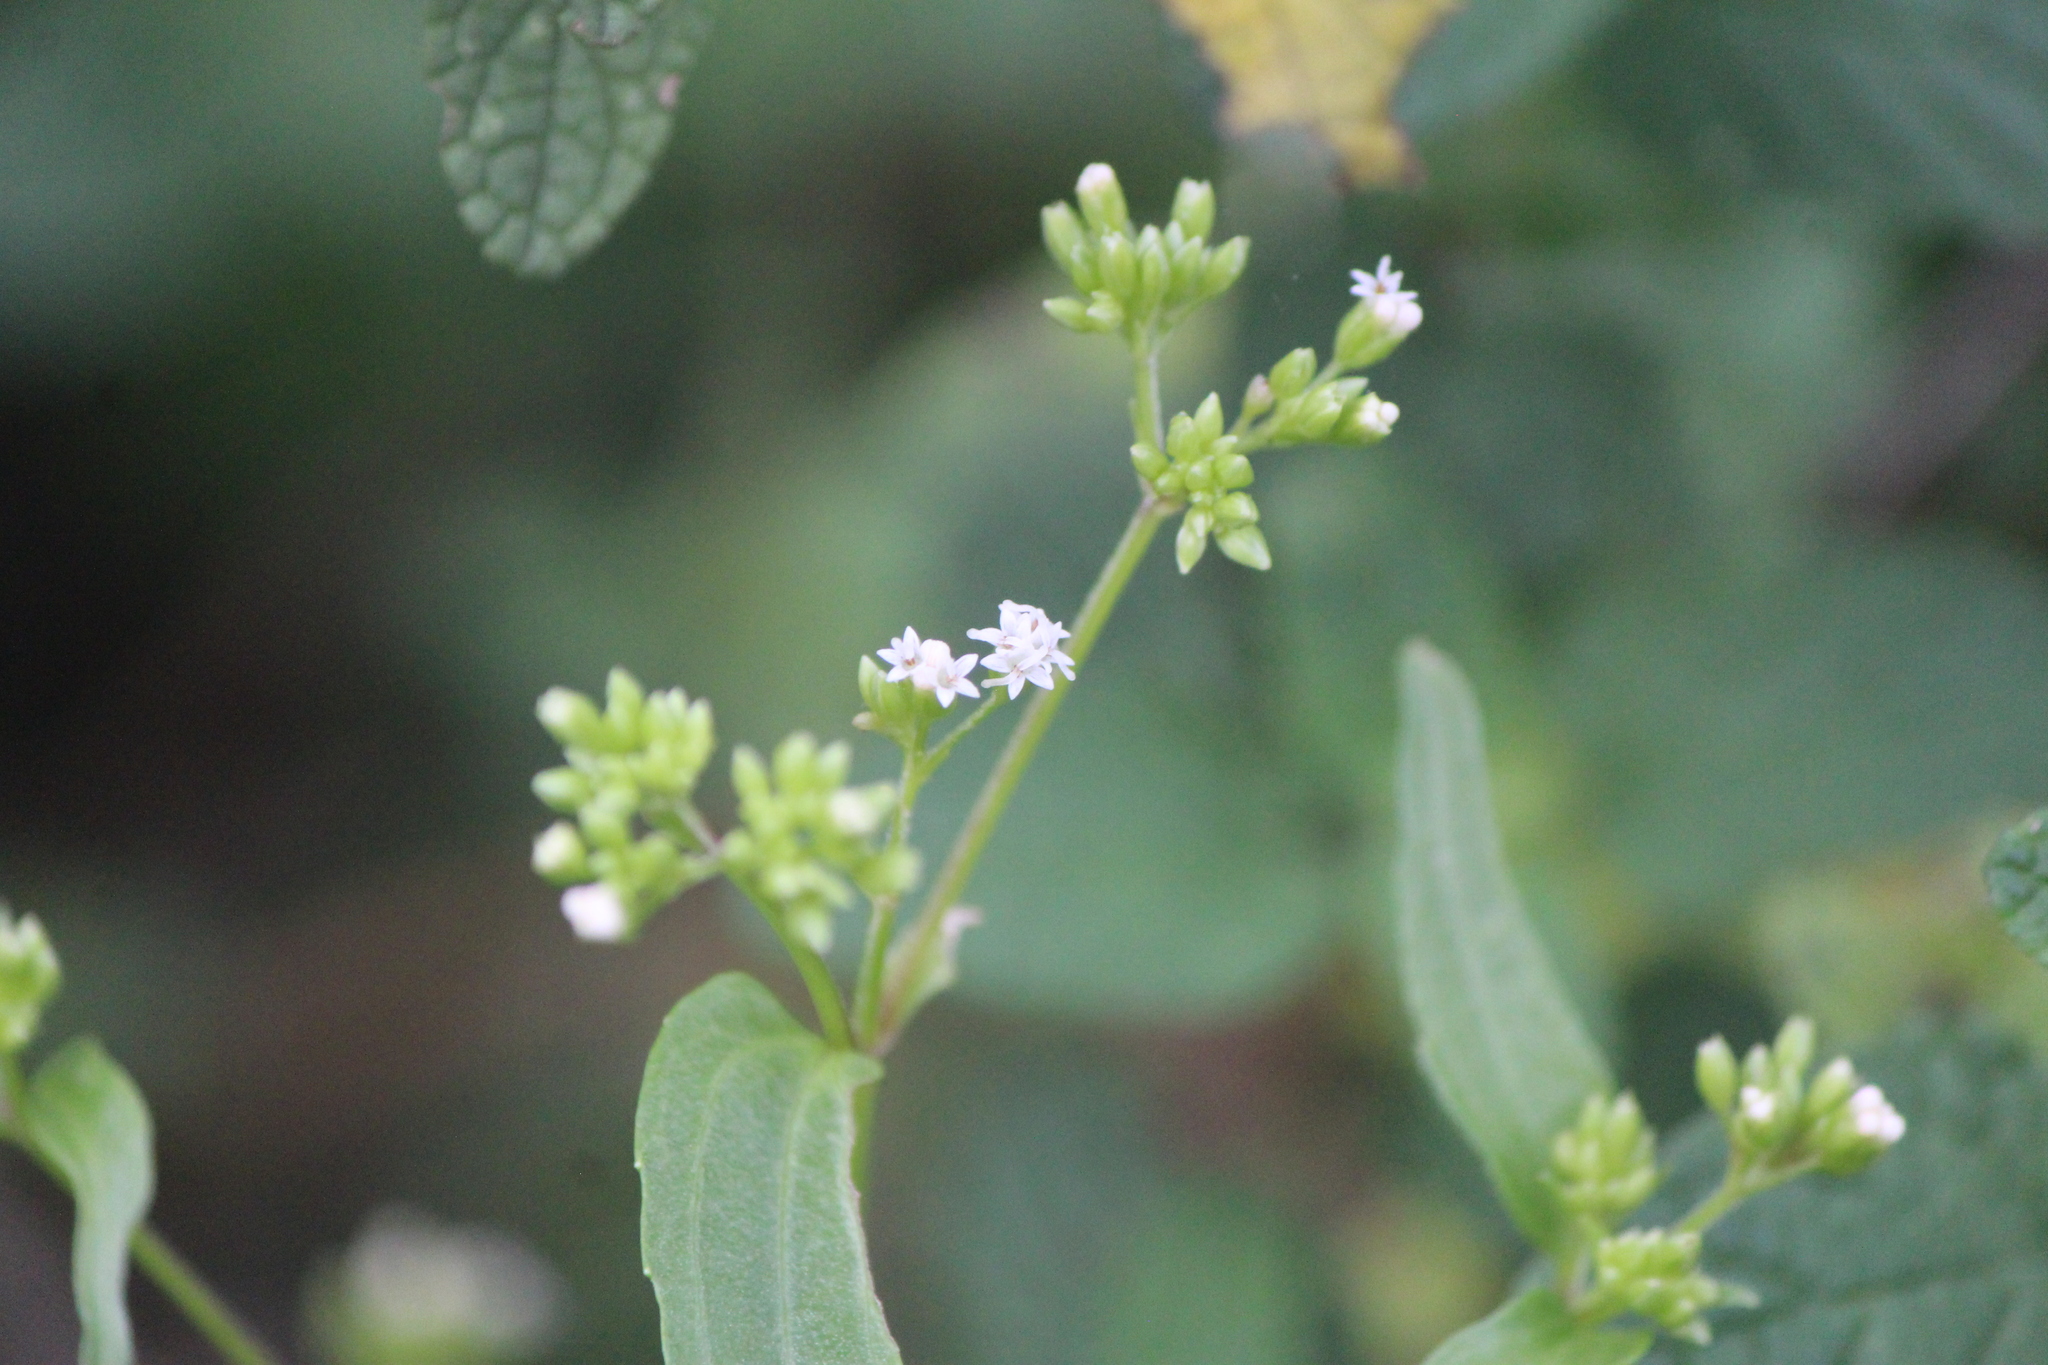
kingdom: Plantae
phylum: Tracheophyta
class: Magnoliopsida
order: Asterales
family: Asteraceae
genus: Piqueria
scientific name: Piqueria trinervia
